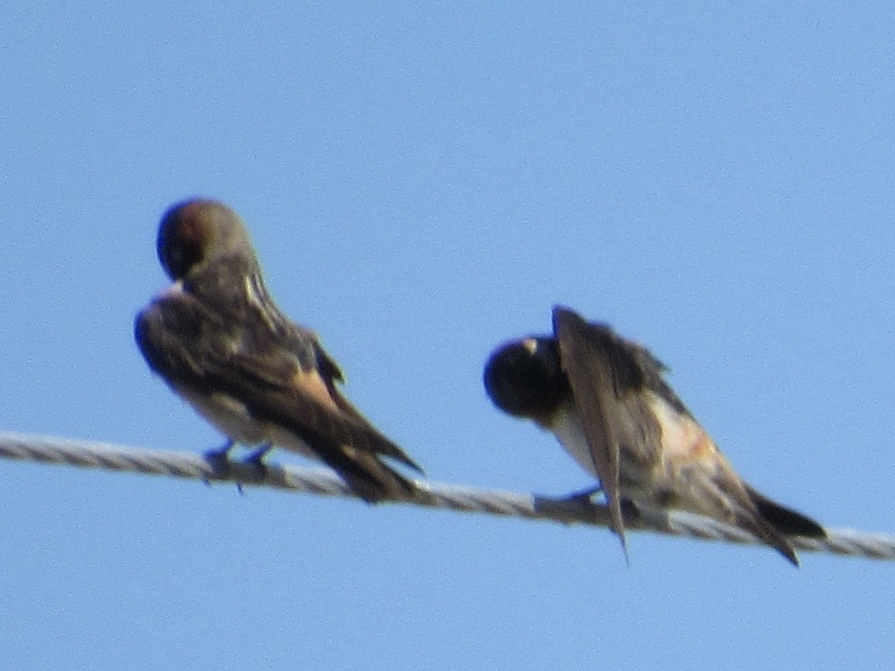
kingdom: Animalia
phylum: Chordata
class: Aves
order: Passeriformes
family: Hirundinidae
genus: Petrochelidon
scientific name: Petrochelidon pyrrhonota
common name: American cliff swallow
